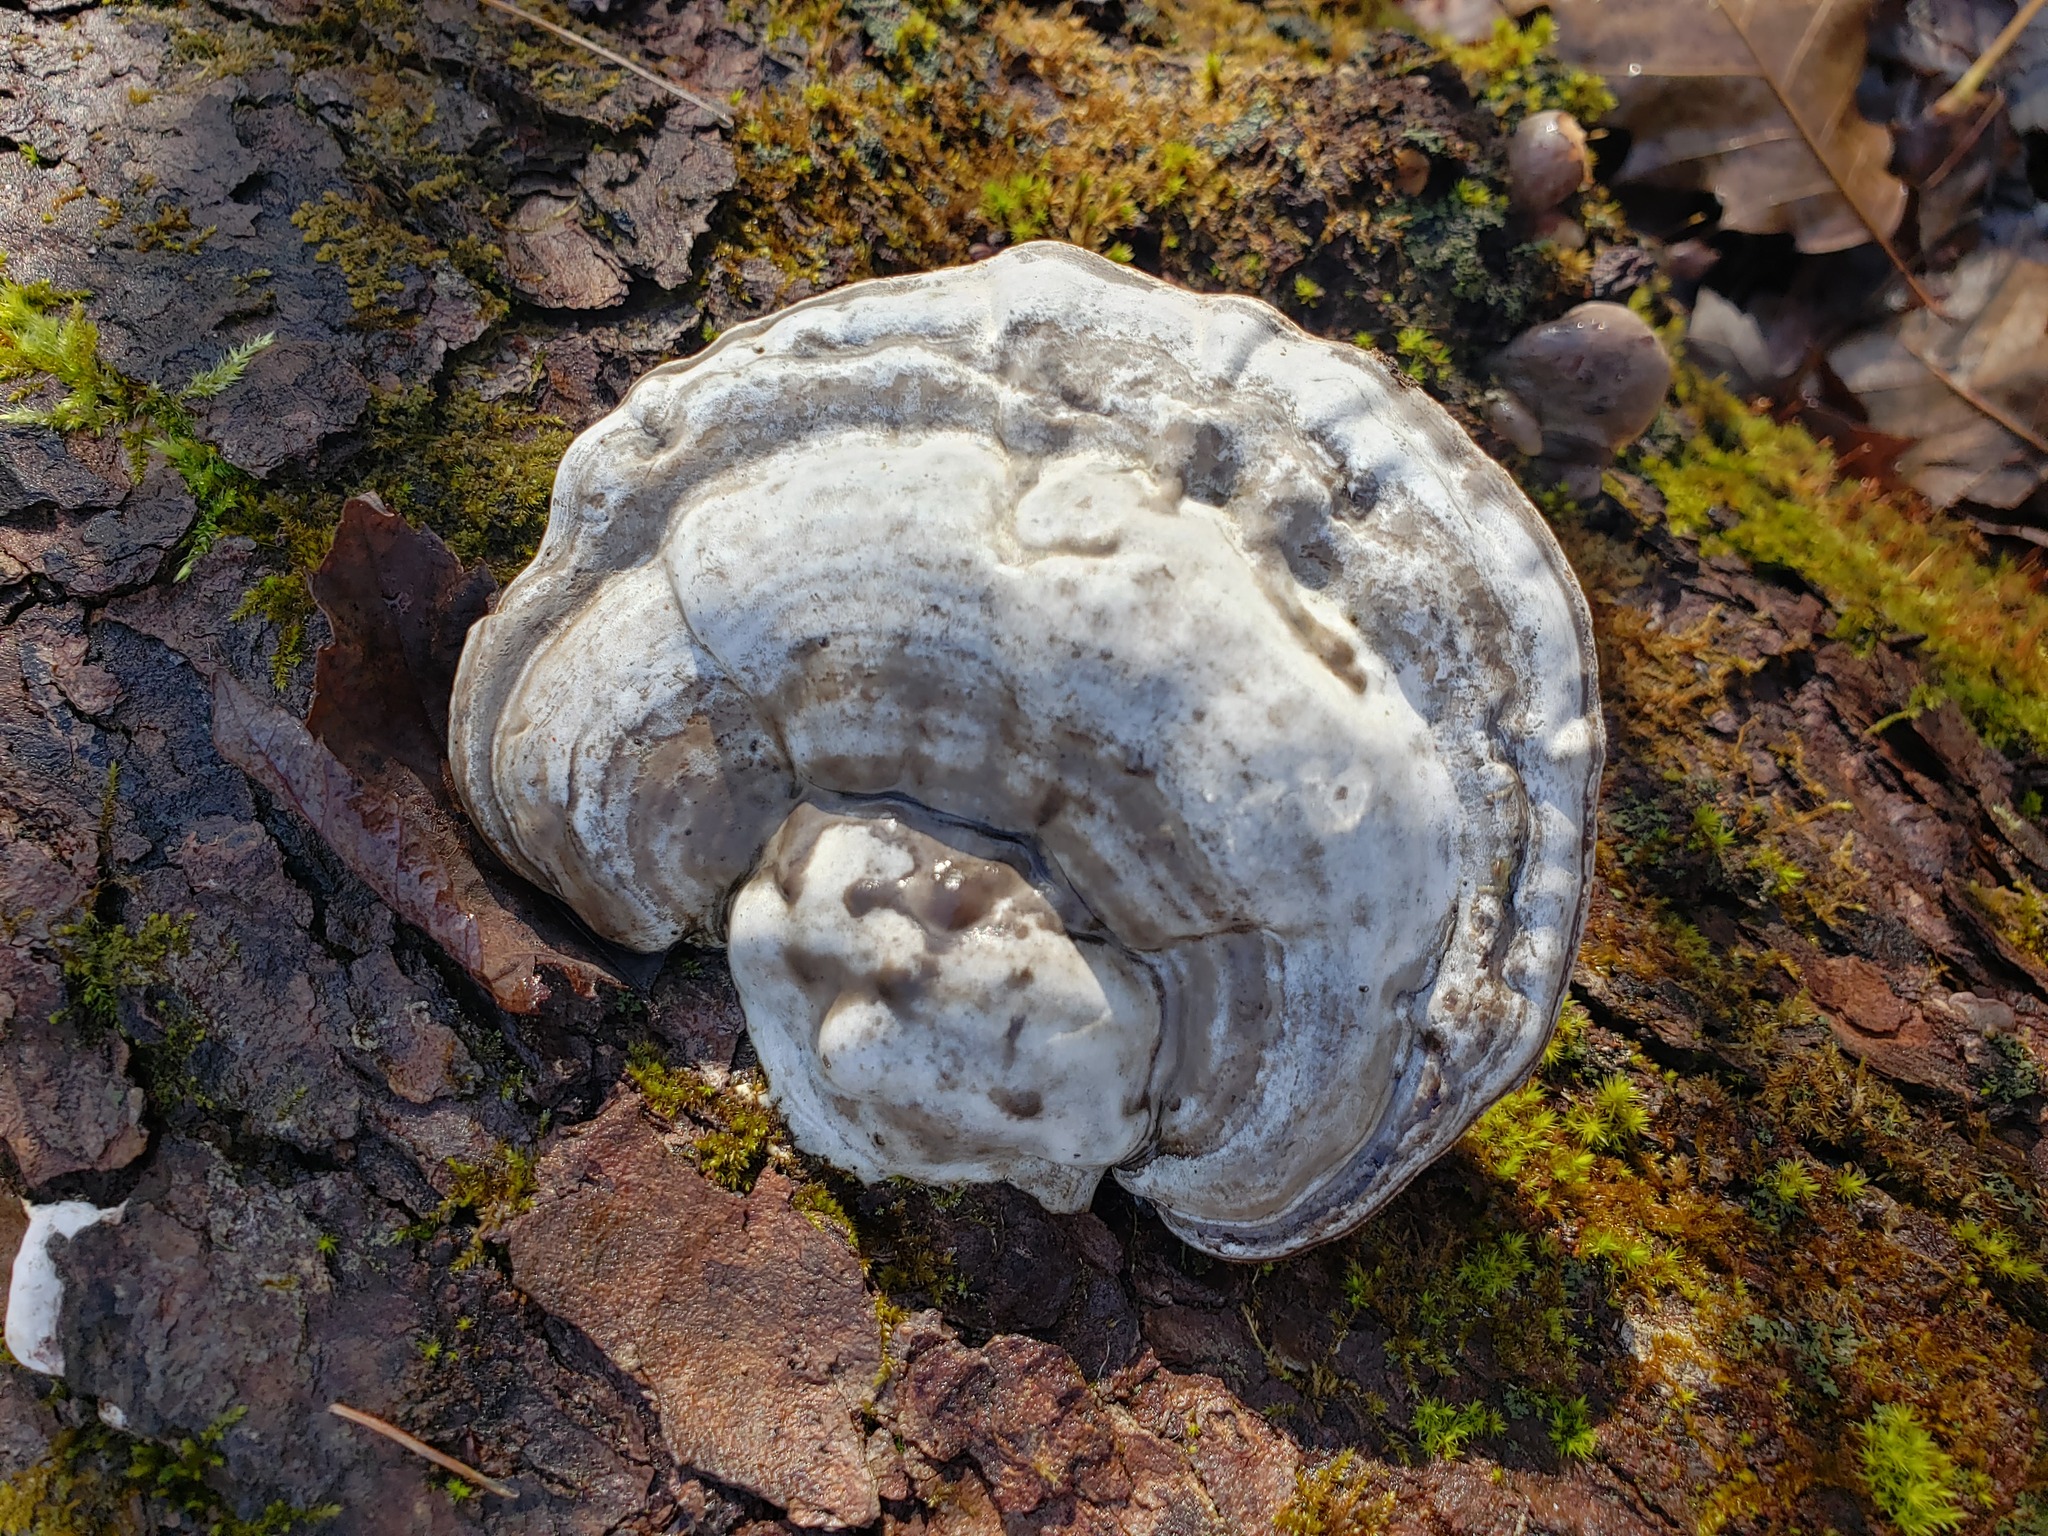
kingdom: Fungi
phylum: Basidiomycota
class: Agaricomycetes
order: Polyporales
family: Polyporaceae
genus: Fomes
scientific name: Fomes fomentarius
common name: Hoof fungus
